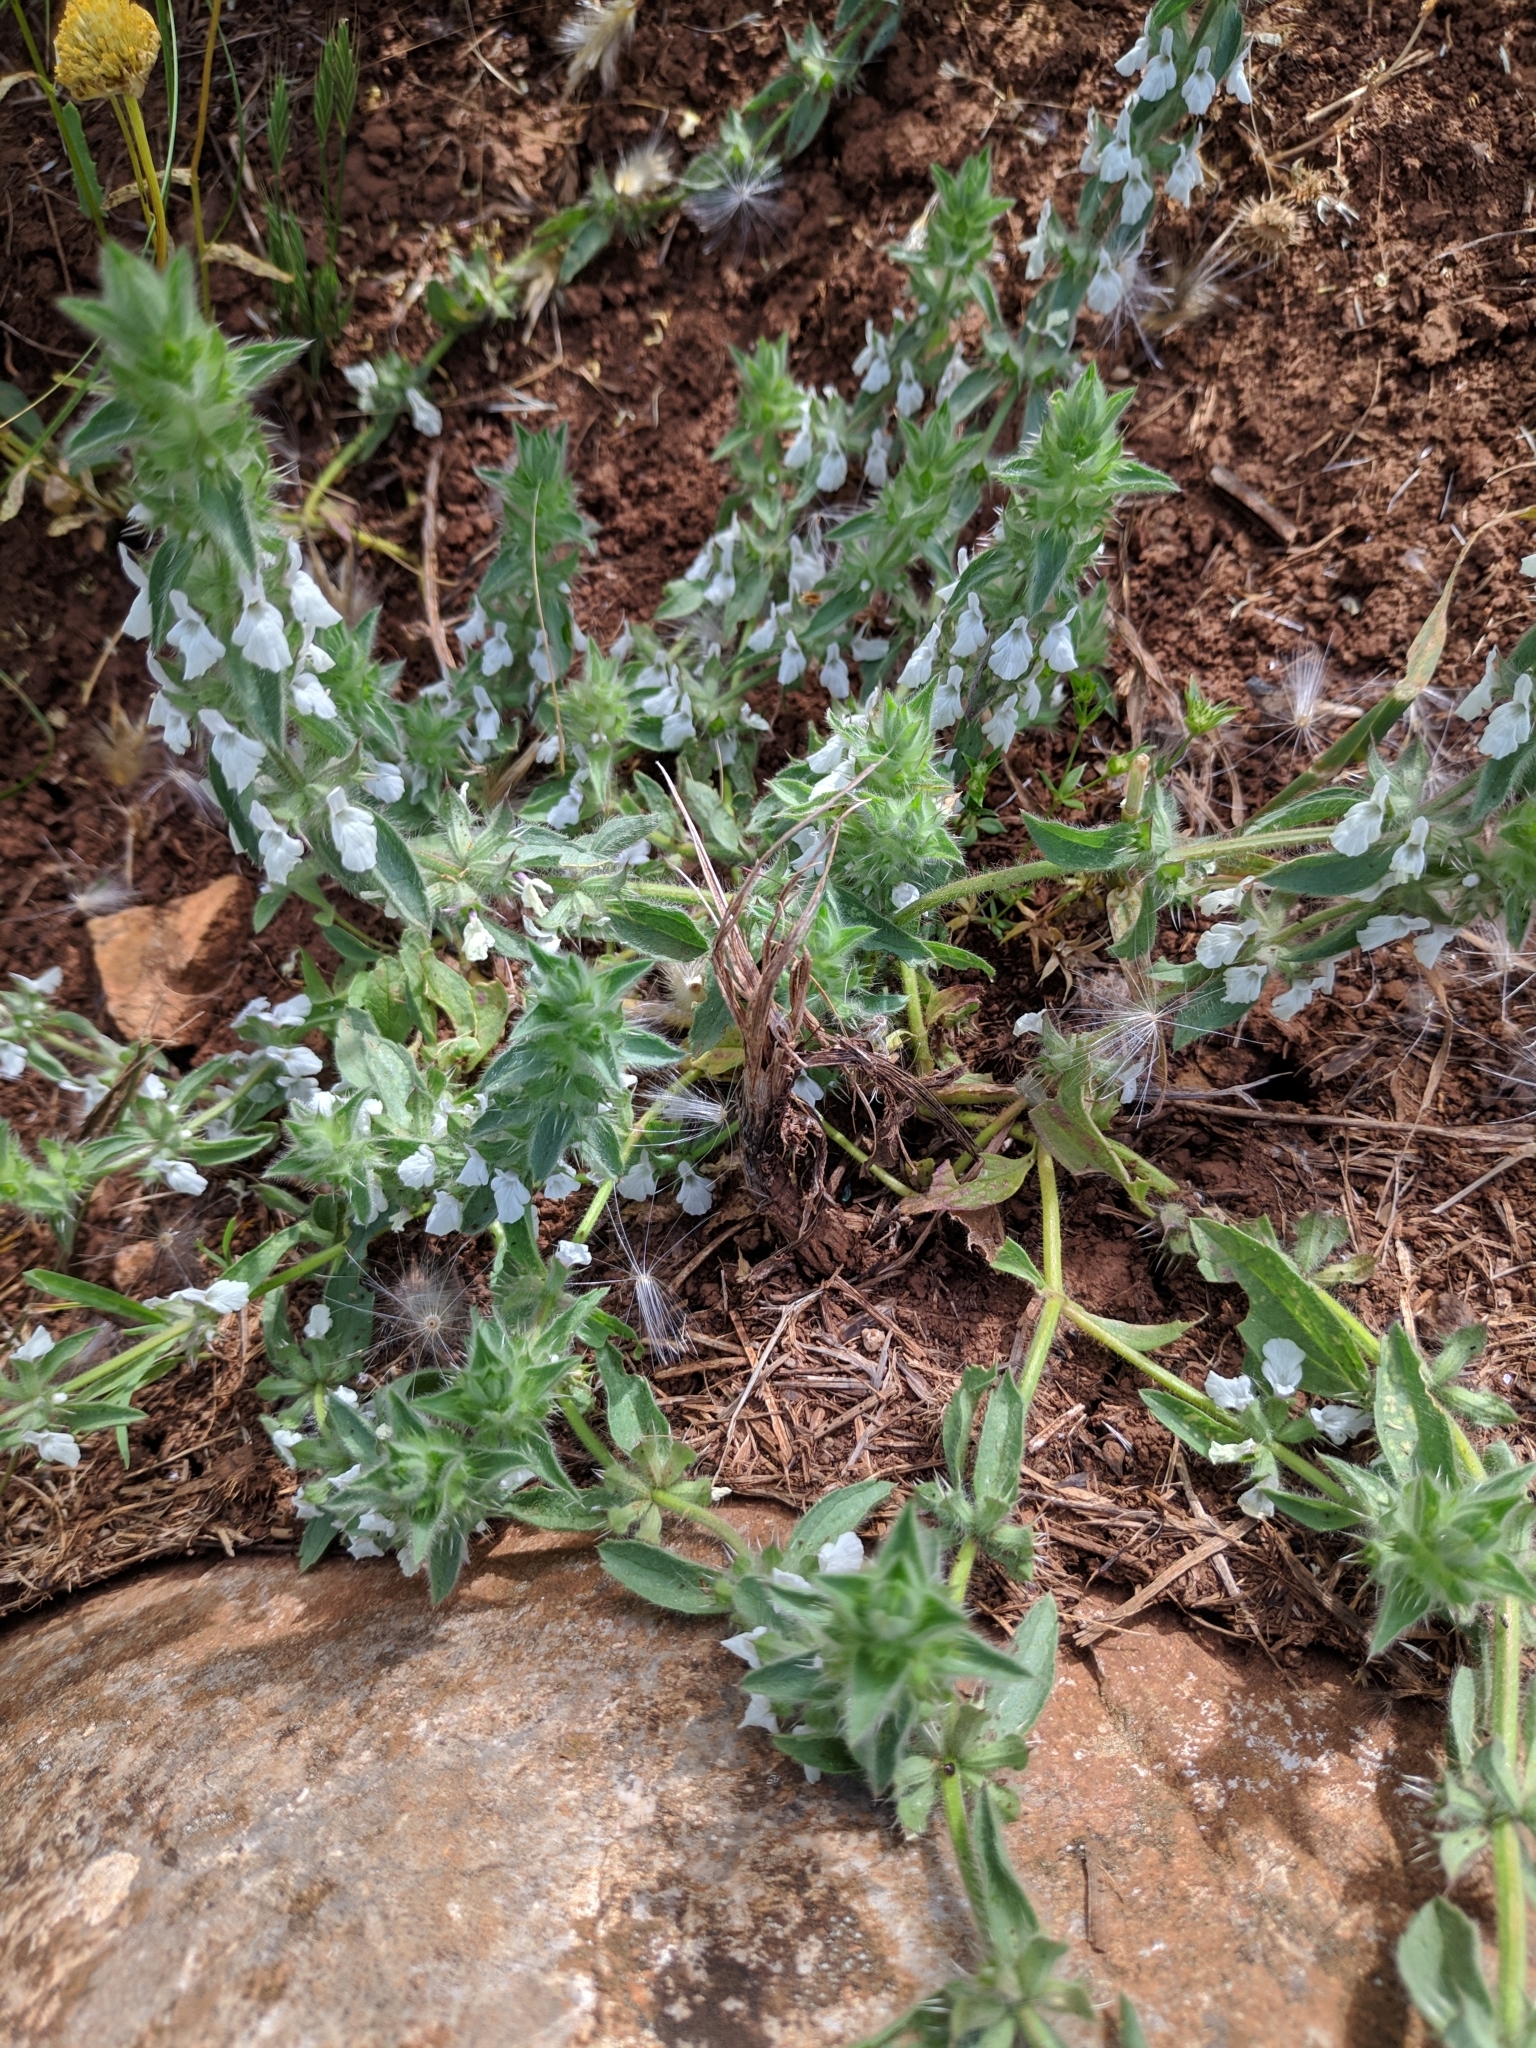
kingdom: Plantae
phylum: Tracheophyta
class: Magnoliopsida
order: Lamiales
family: Lamiaceae
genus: Sideritis
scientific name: Sideritis romana
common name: Simplebeak ironwort
